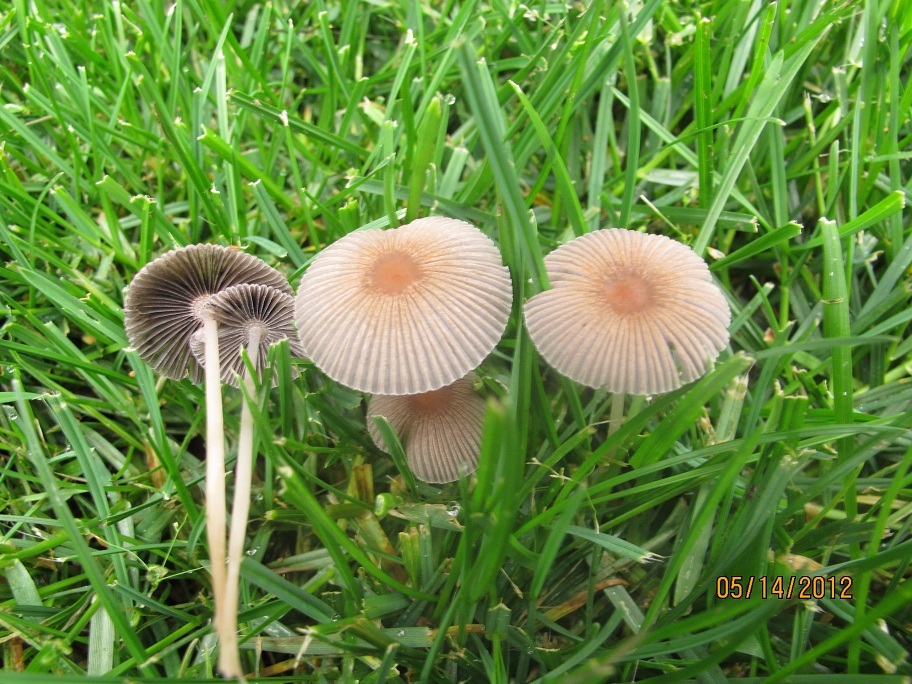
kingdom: Fungi
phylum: Basidiomycota
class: Agaricomycetes
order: Agaricales
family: Psathyrellaceae
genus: Parasola
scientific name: Parasola plicatilis
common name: Pleated inkcap
